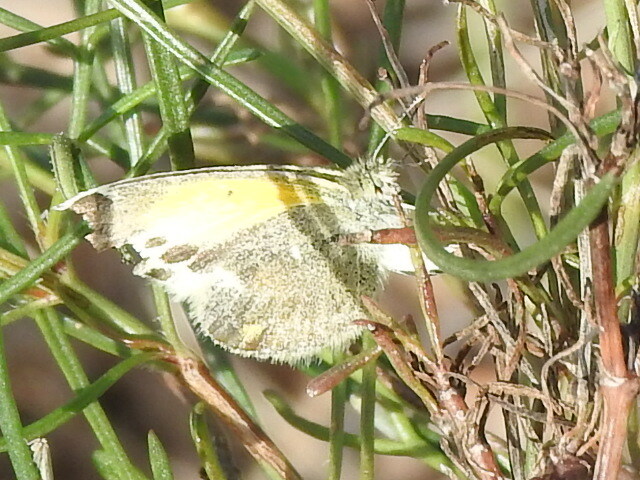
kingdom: Animalia
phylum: Arthropoda
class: Insecta
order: Lepidoptera
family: Pieridae
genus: Nathalis
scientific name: Nathalis iole
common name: Dainty sulphur
